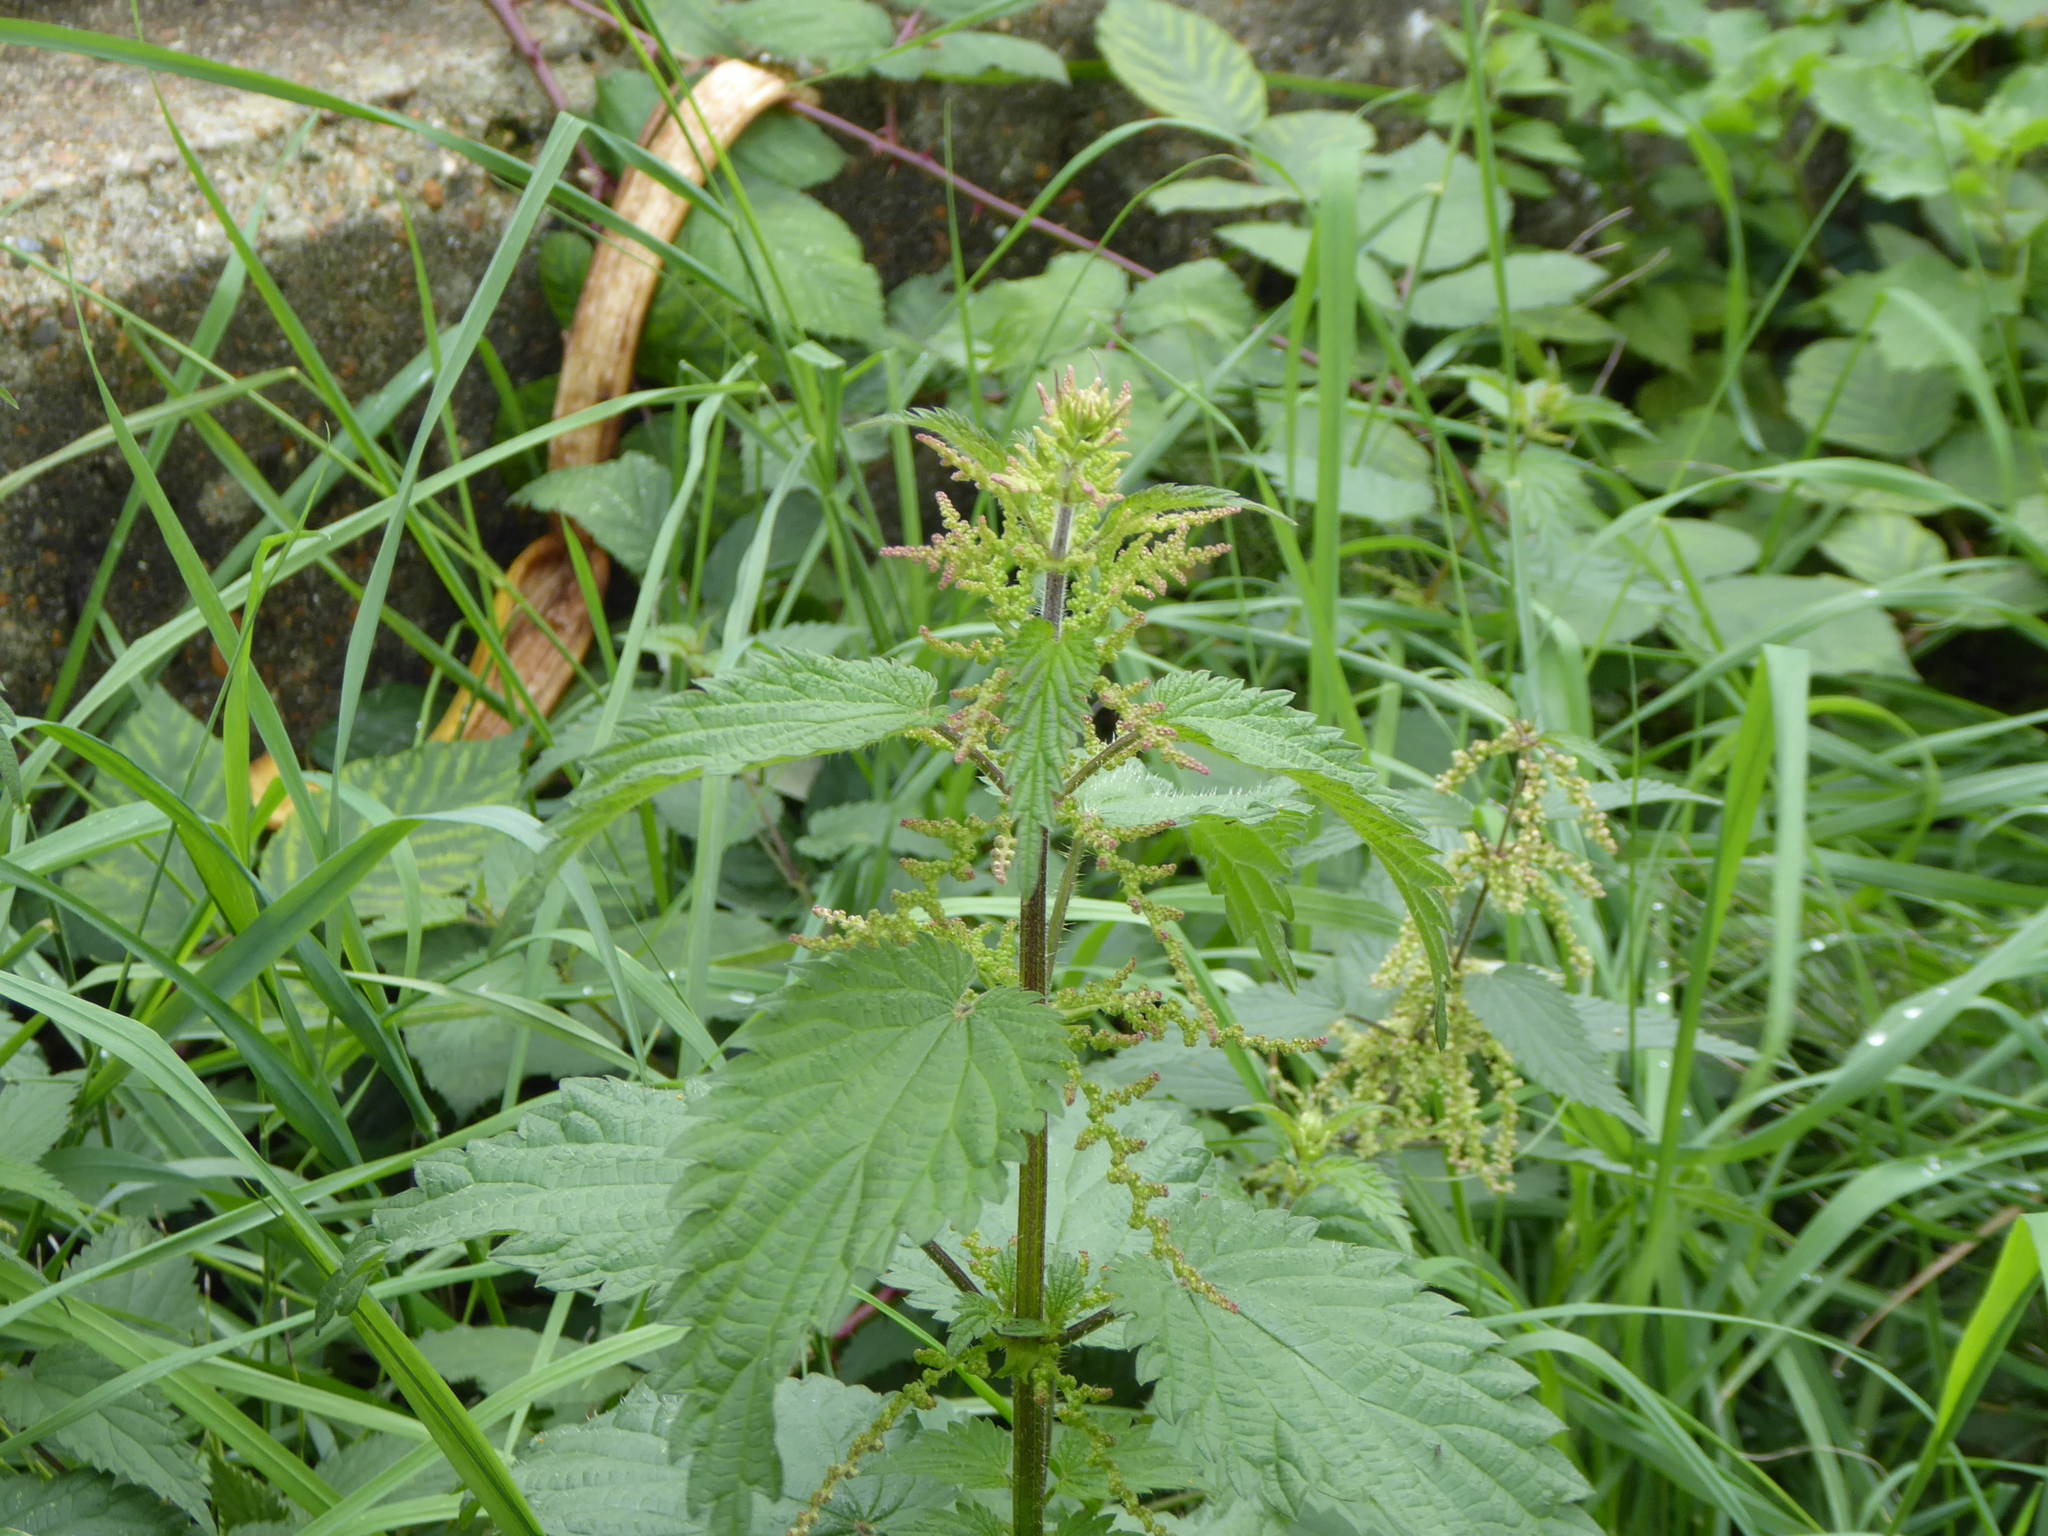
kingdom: Plantae
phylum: Tracheophyta
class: Magnoliopsida
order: Rosales
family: Urticaceae
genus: Urtica
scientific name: Urtica dioica
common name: Common nettle
